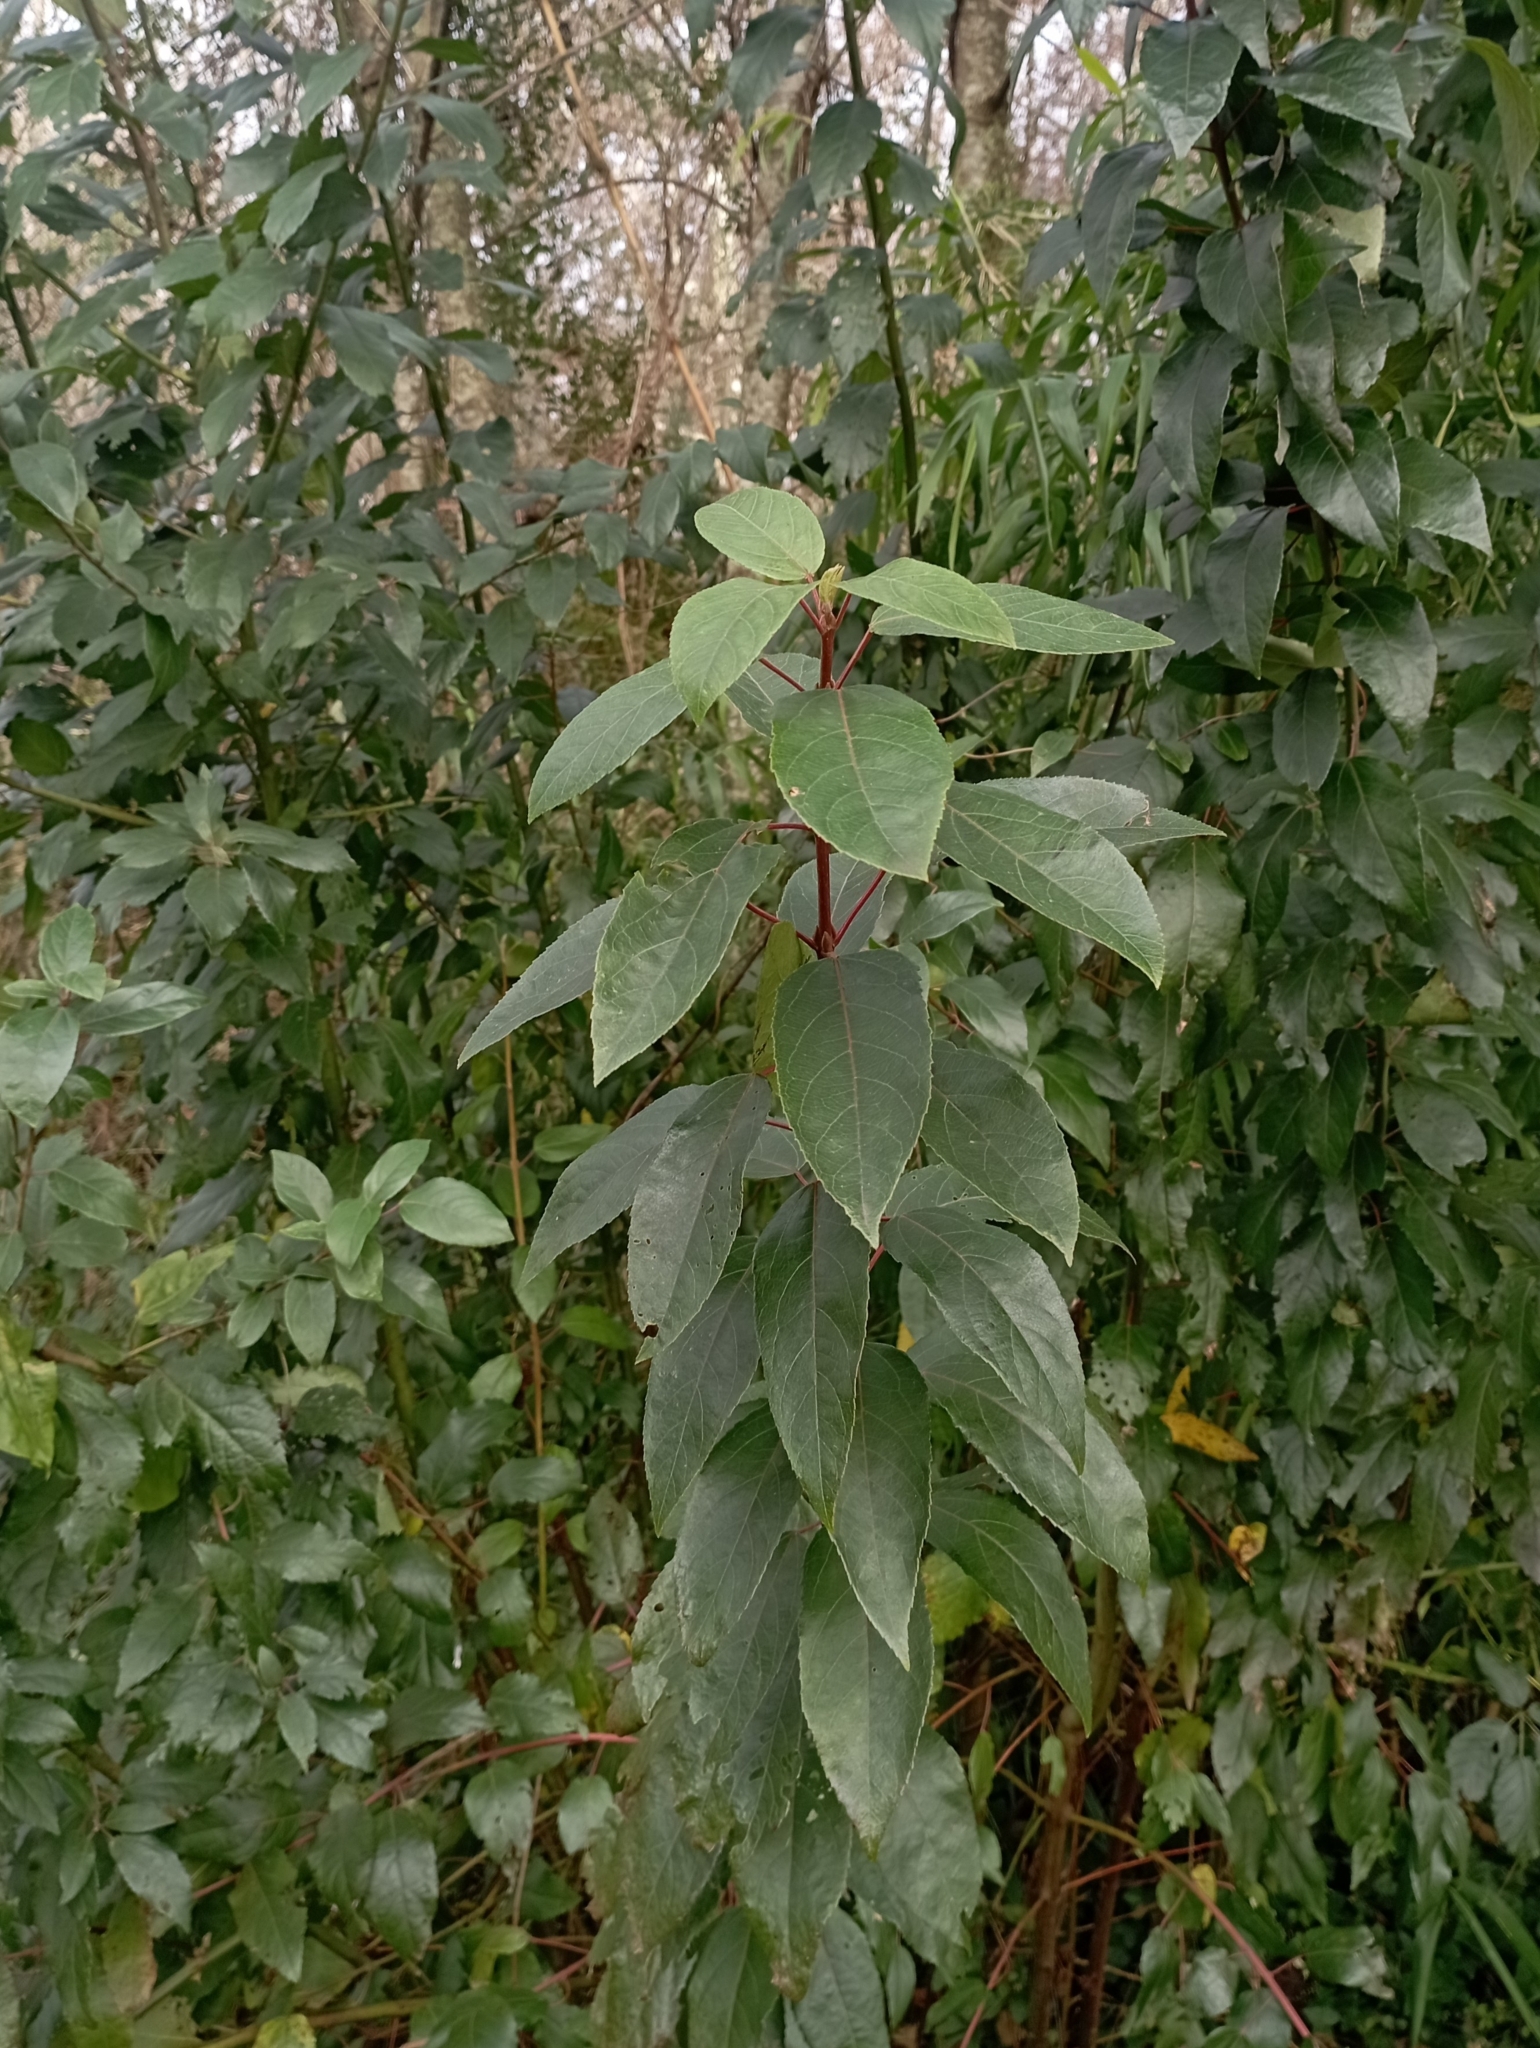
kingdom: Plantae
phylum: Tracheophyta
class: Magnoliopsida
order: Oxalidales
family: Elaeocarpaceae
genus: Aristotelia
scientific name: Aristotelia chilensis
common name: Maquei
